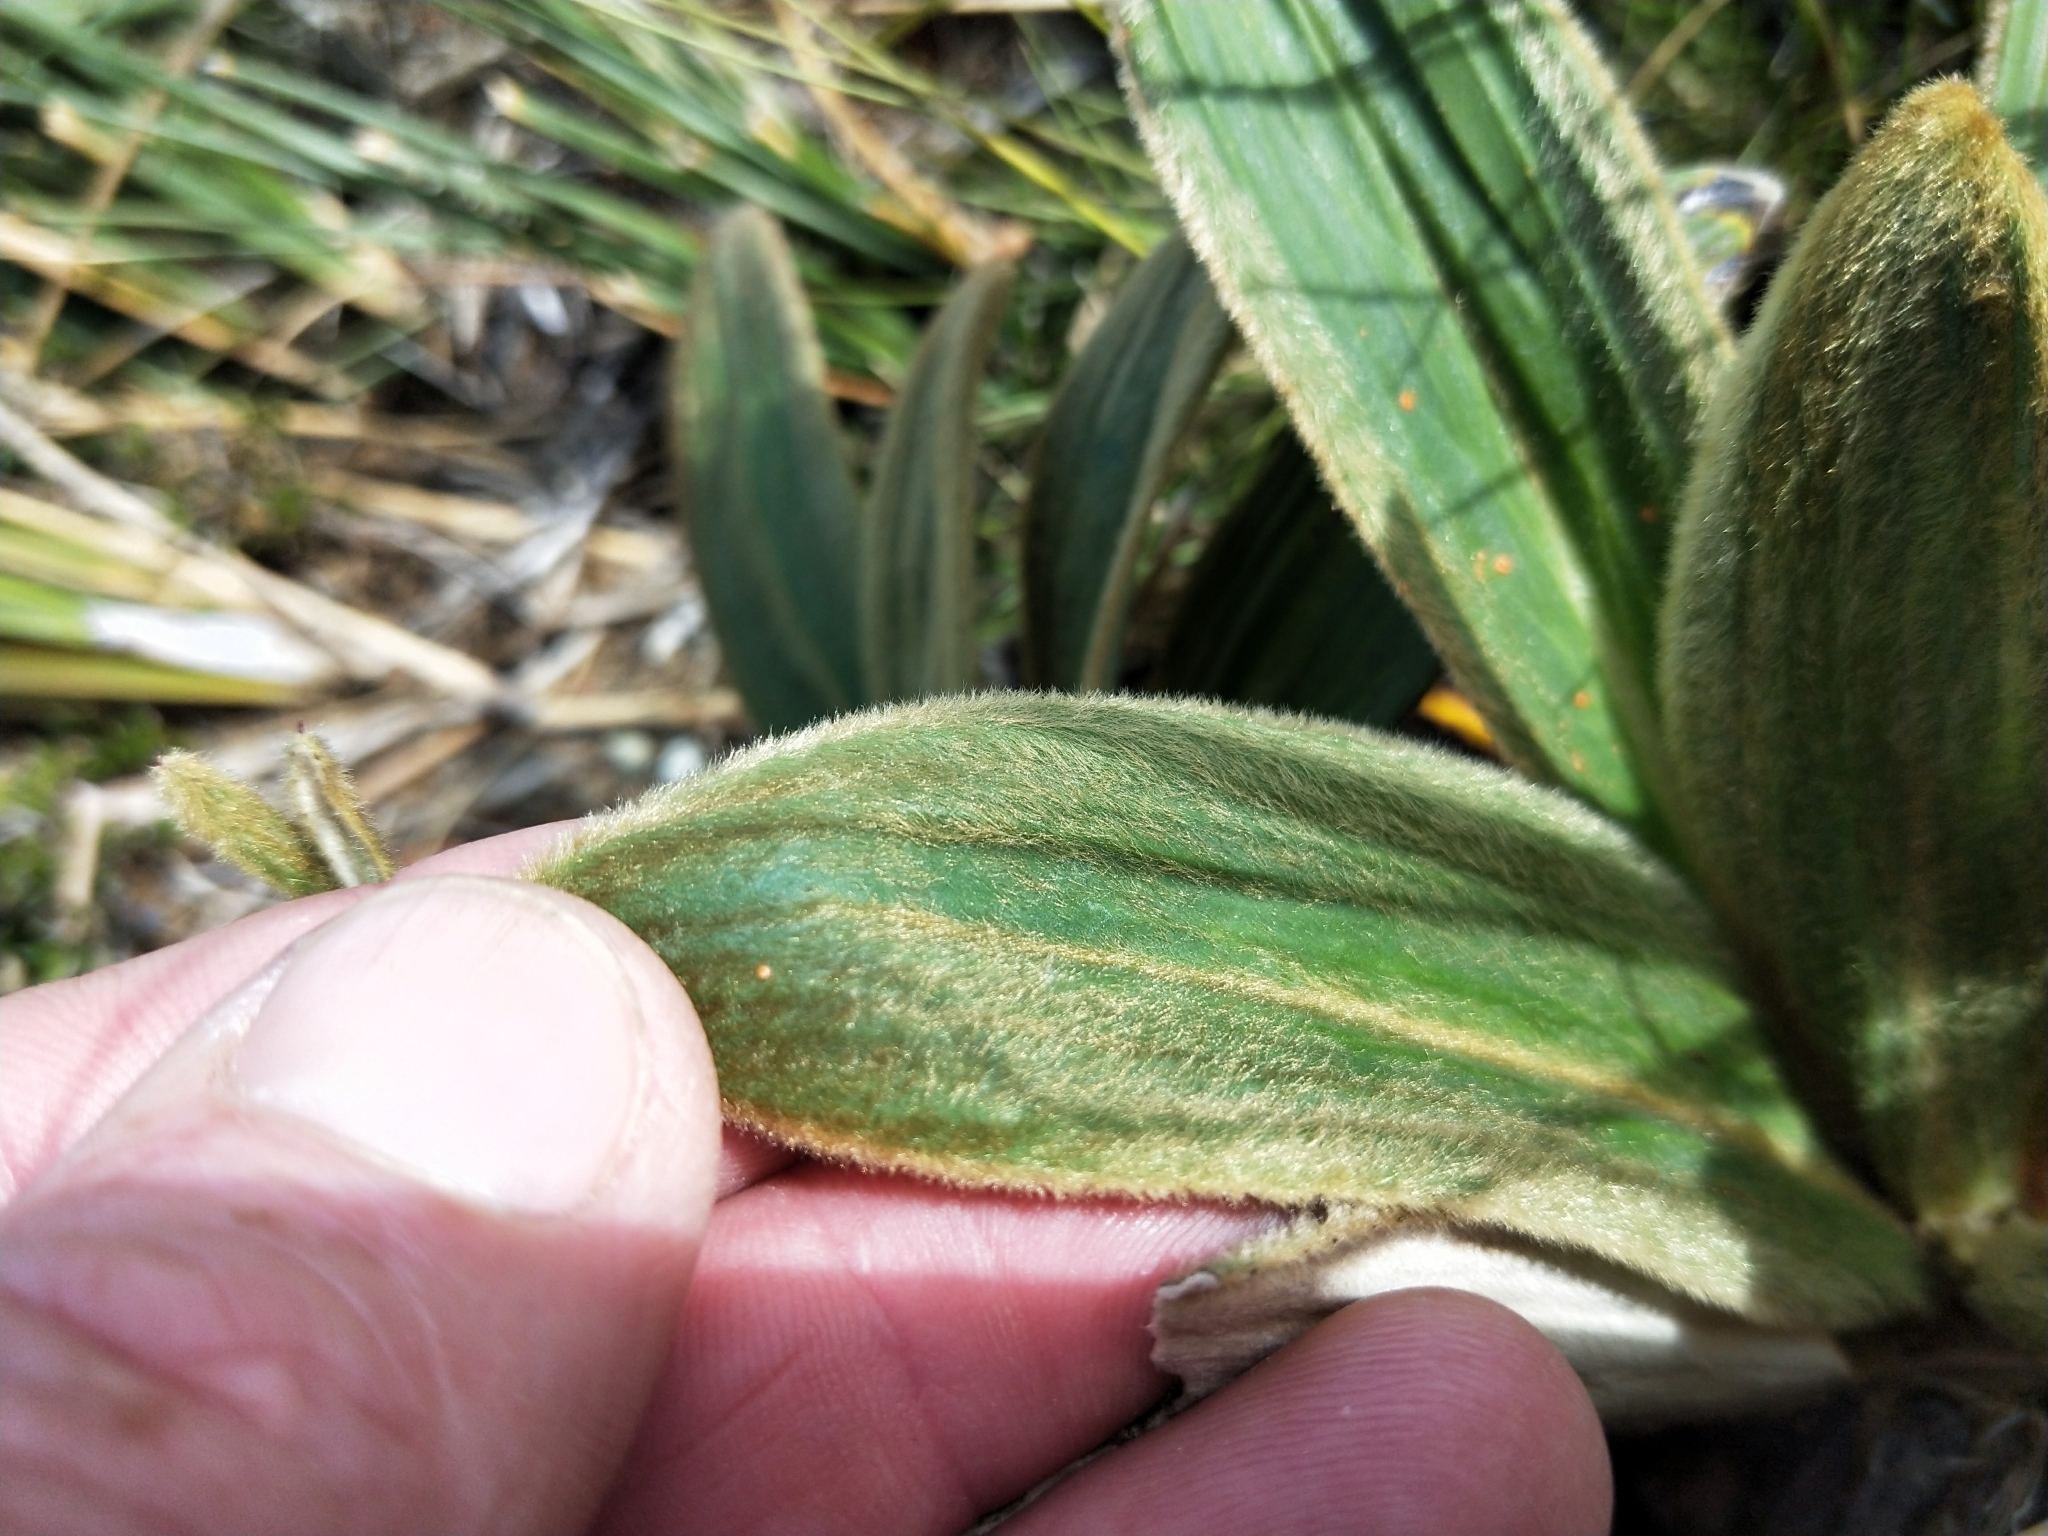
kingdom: Plantae
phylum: Tracheophyta
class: Magnoliopsida
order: Asterales
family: Asteraceae
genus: Celmisia
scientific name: Celmisia verbascifolia
